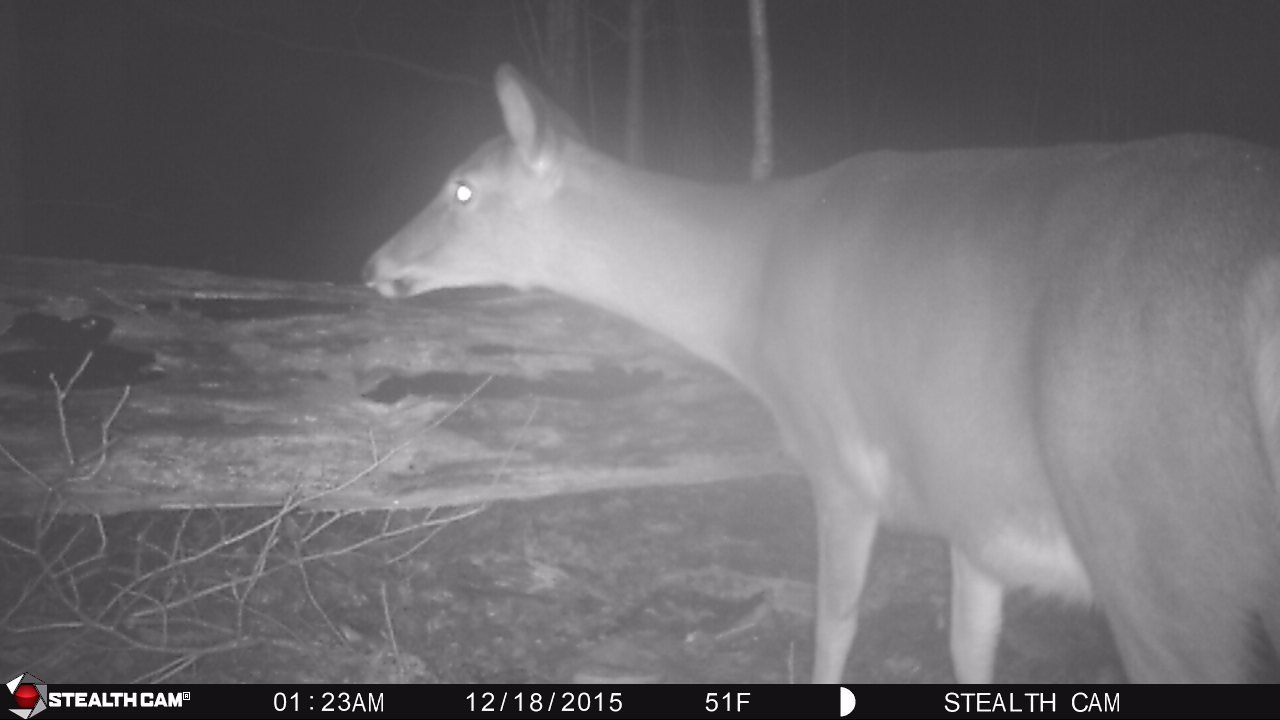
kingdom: Animalia
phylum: Chordata
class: Mammalia
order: Artiodactyla
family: Cervidae
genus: Odocoileus
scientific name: Odocoileus virginianus
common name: White-tailed deer
